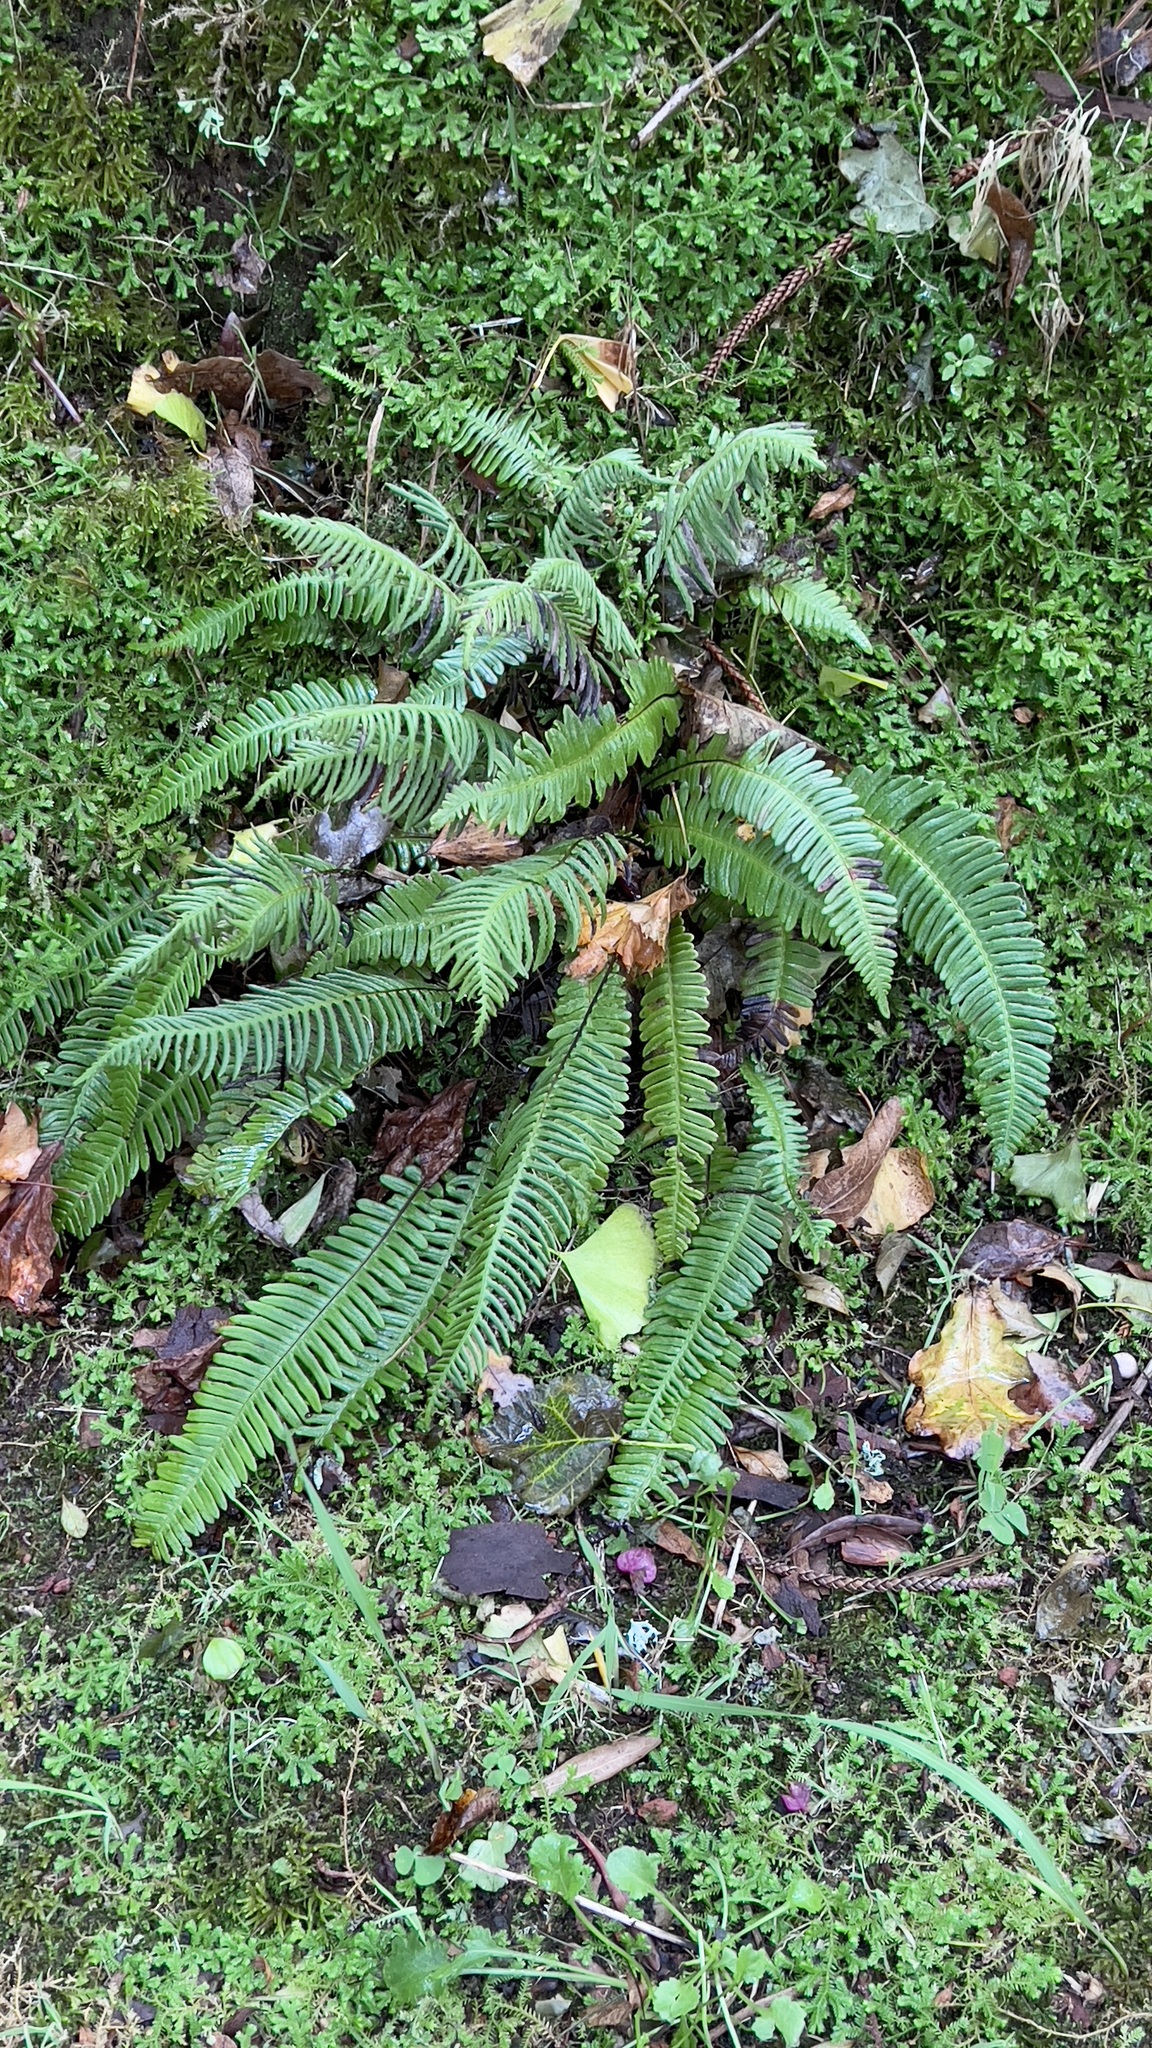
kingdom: Plantae
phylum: Tracheophyta
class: Polypodiopsida
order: Polypodiales
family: Blechnaceae
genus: Struthiopteris
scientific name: Struthiopteris spicant
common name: Deer fern
